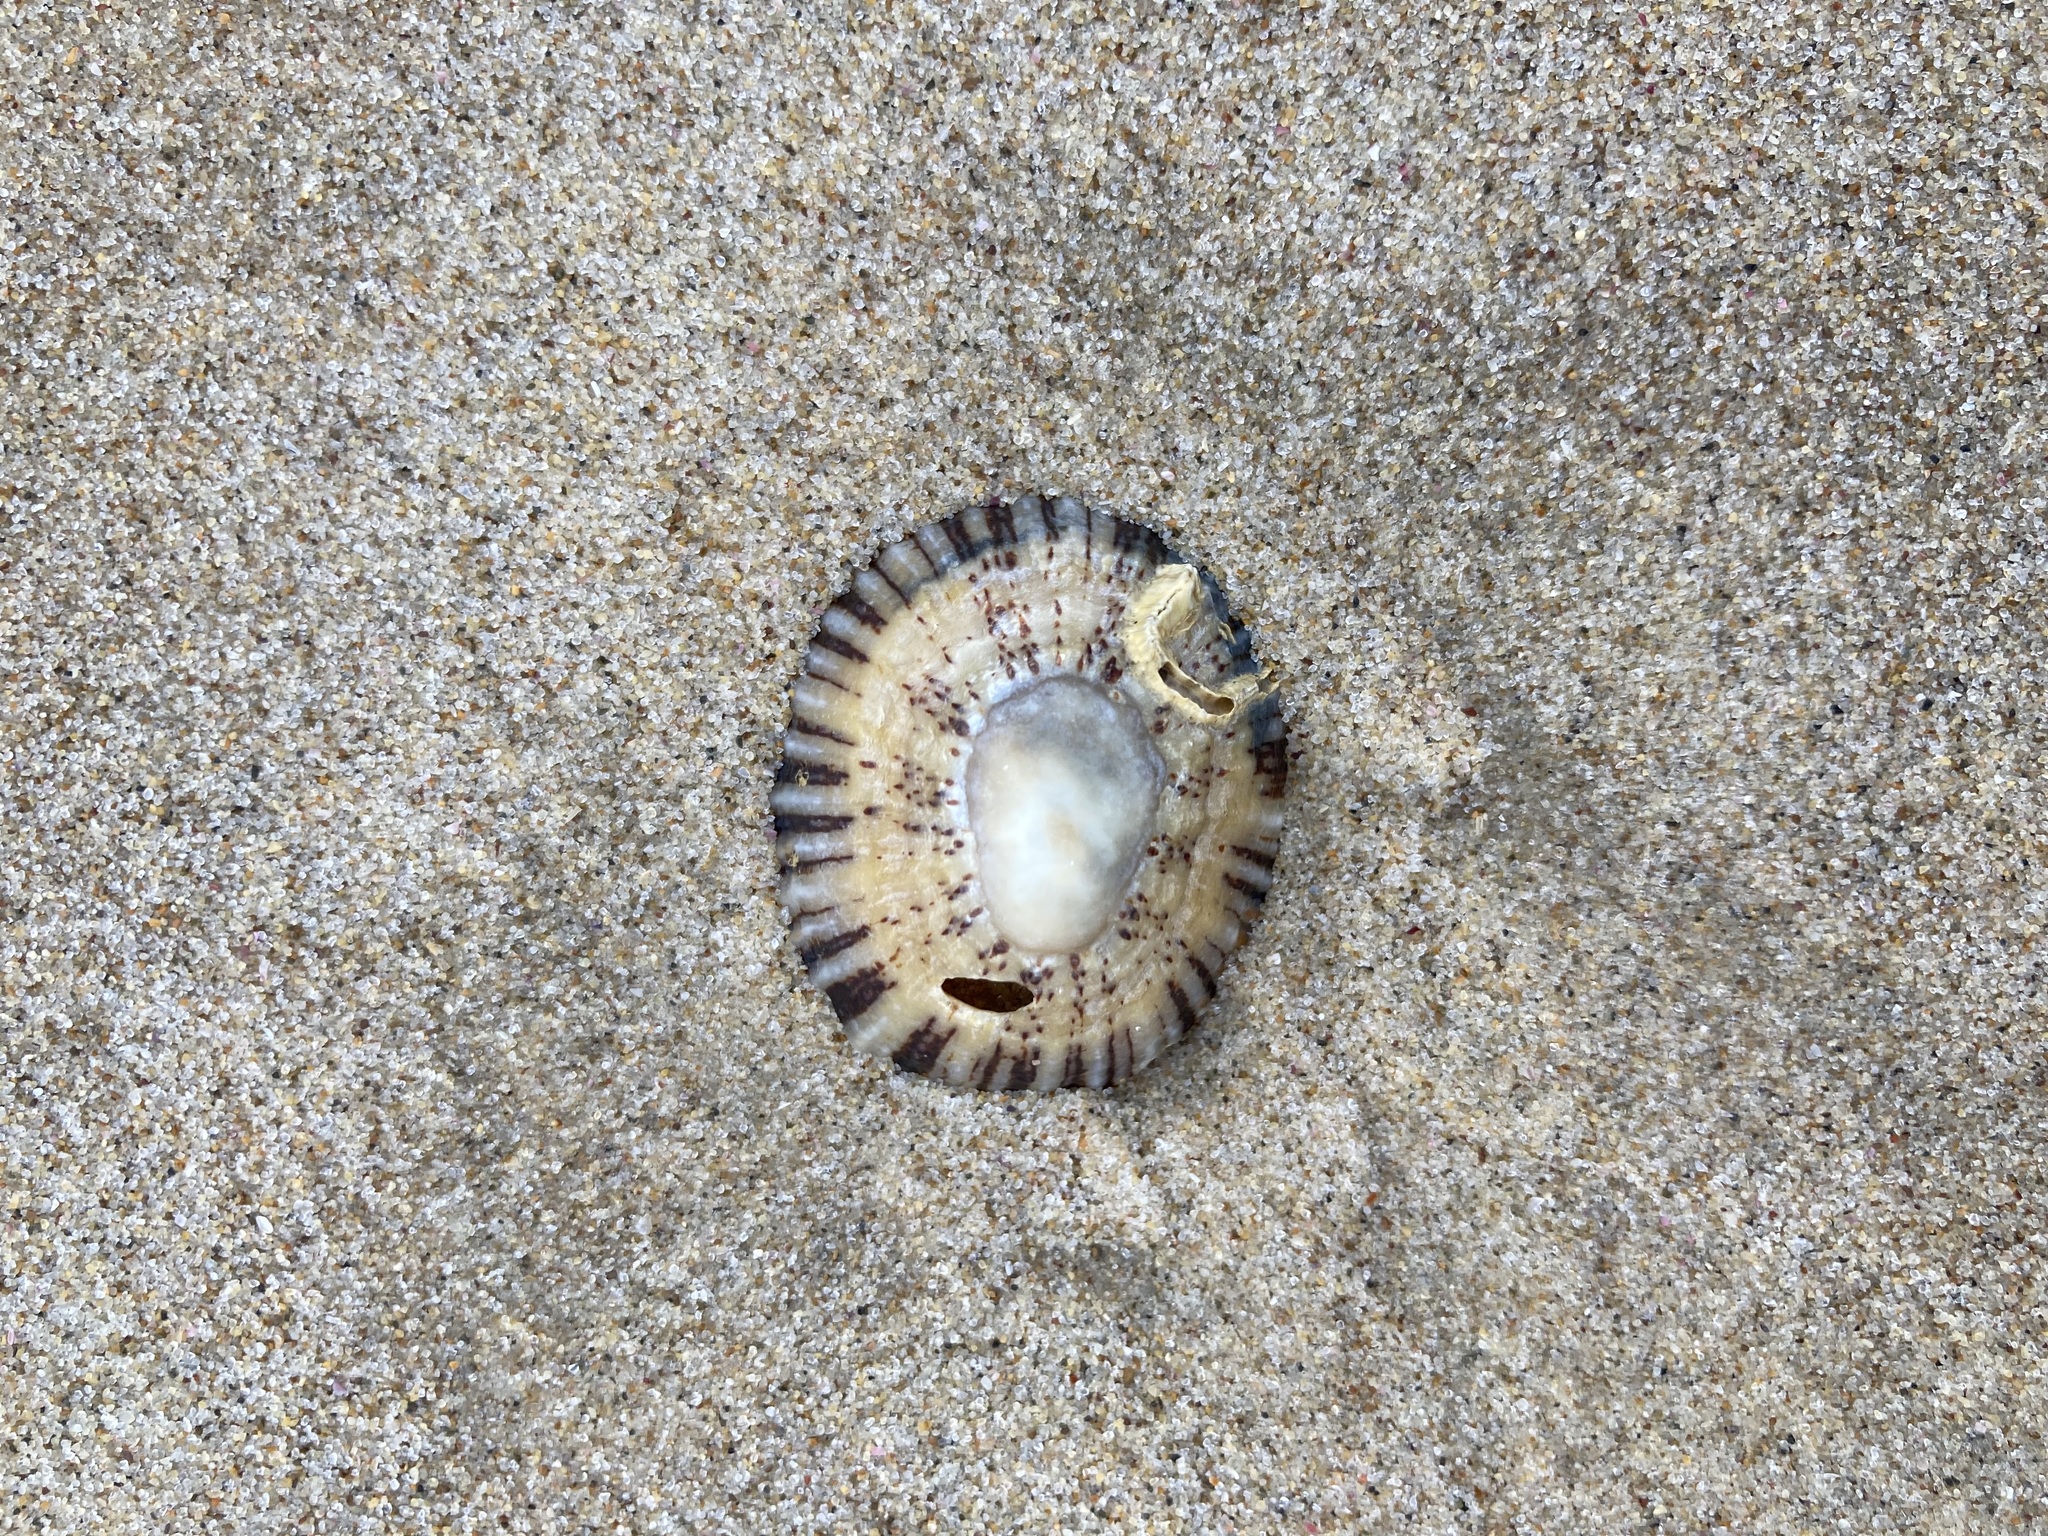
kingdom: Animalia
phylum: Mollusca
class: Gastropoda
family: Nacellidae
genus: Cellana
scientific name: Cellana tramoserica
